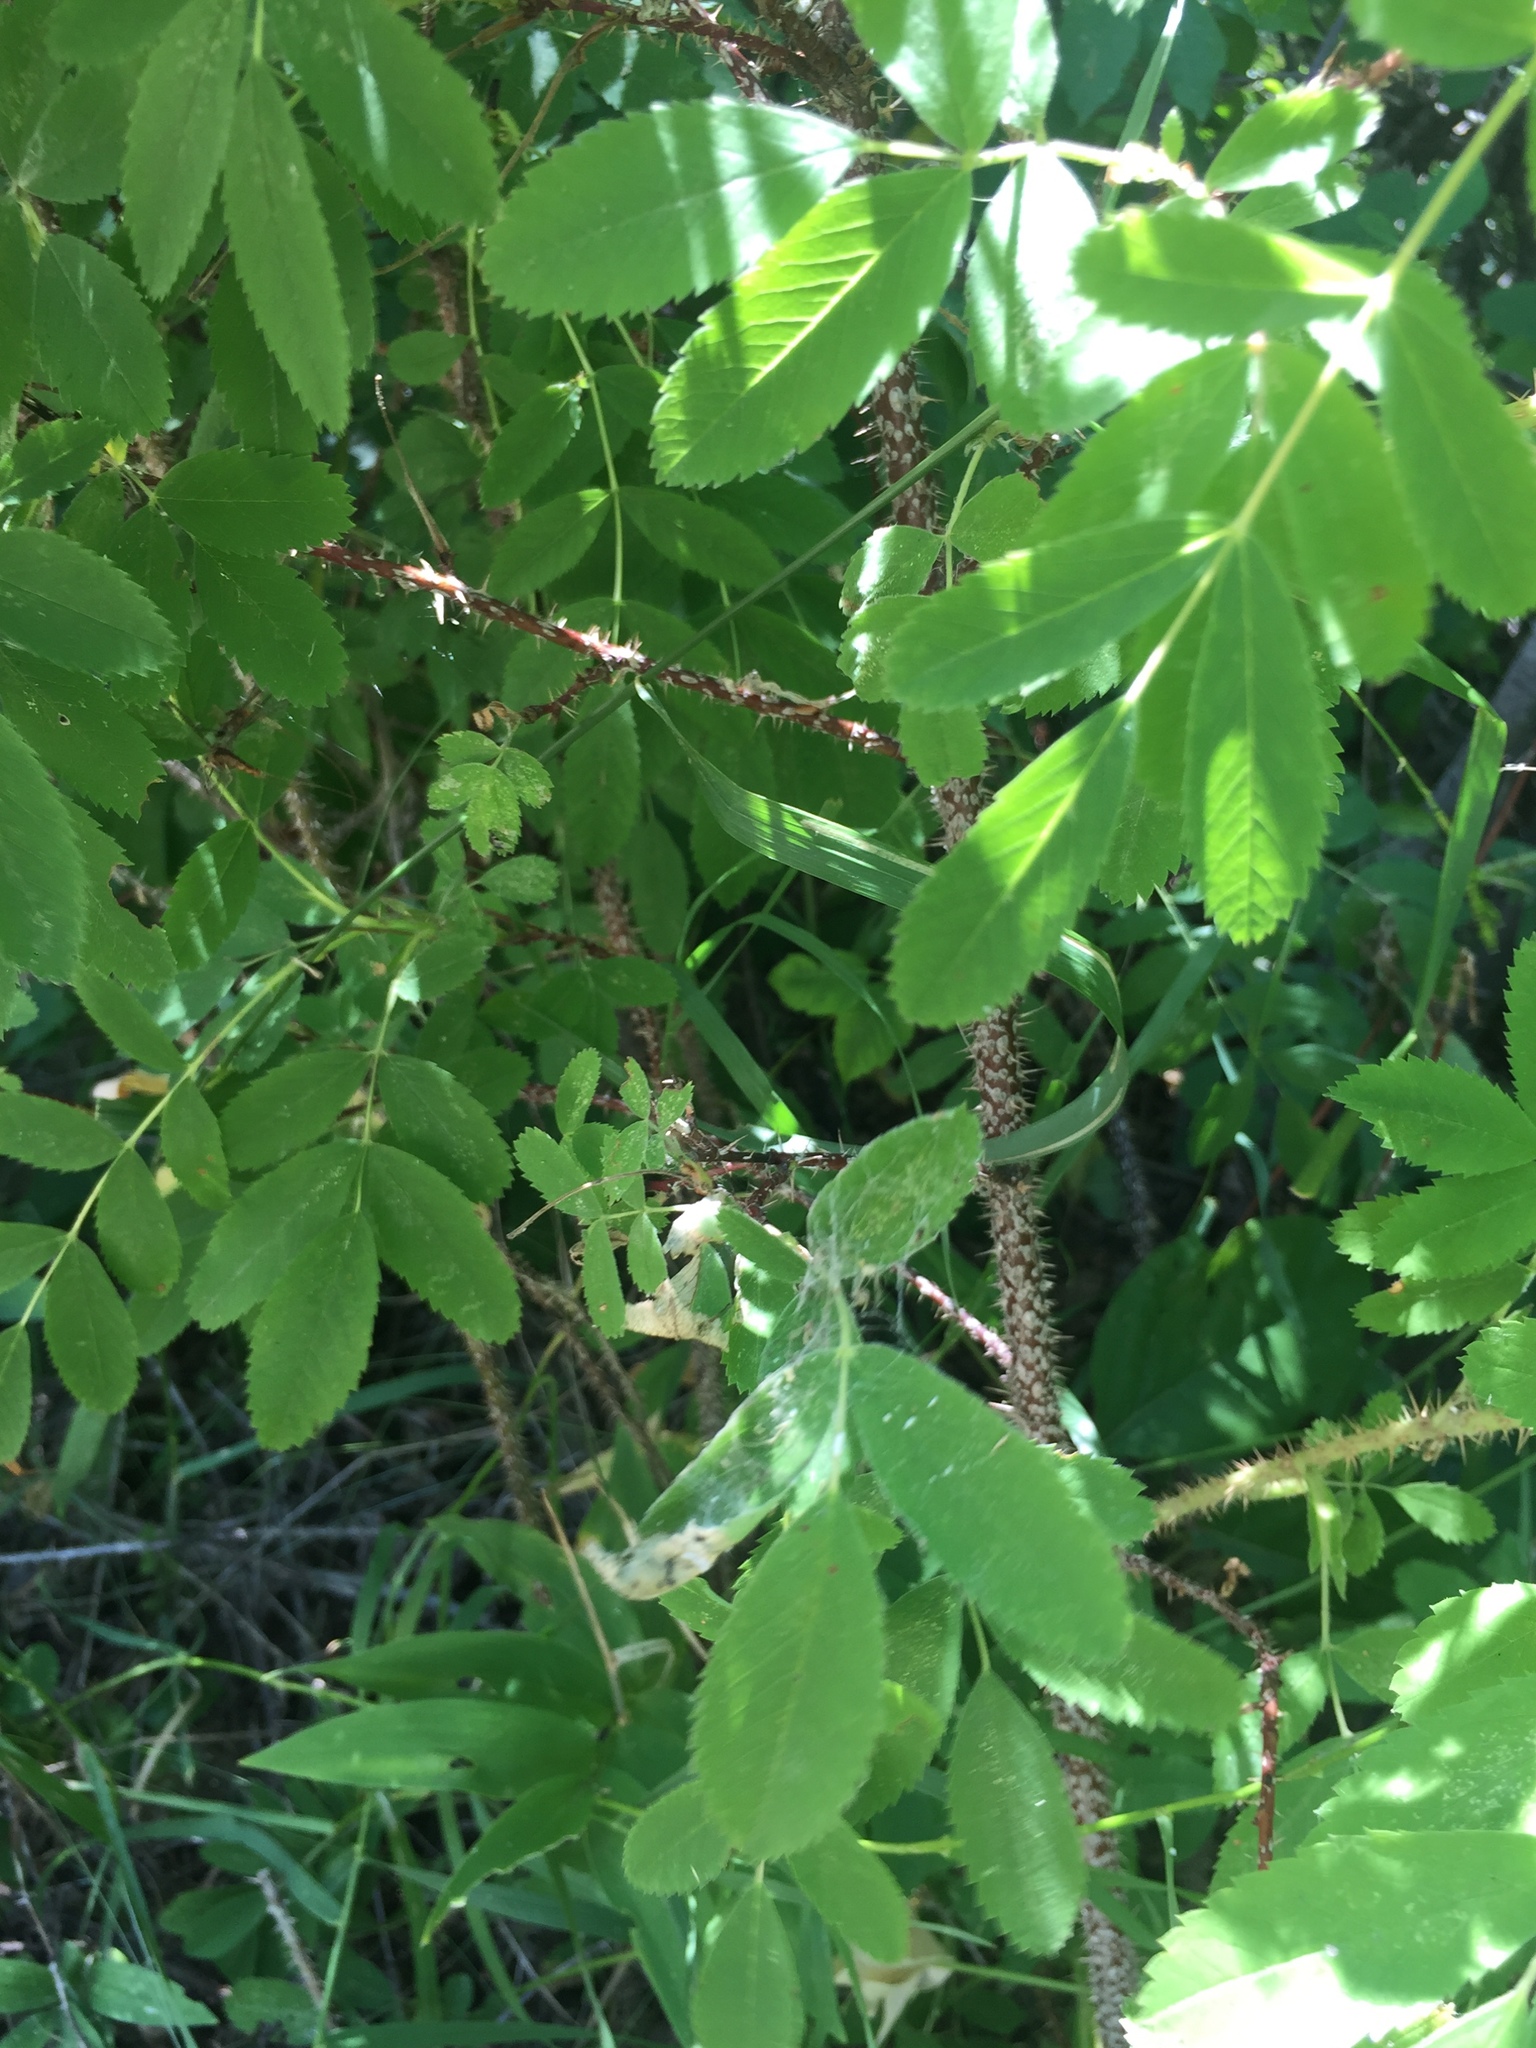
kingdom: Plantae
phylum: Tracheophyta
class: Magnoliopsida
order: Rosales
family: Rosaceae
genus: Rosa
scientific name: Rosa acicularis
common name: Prickly rose
